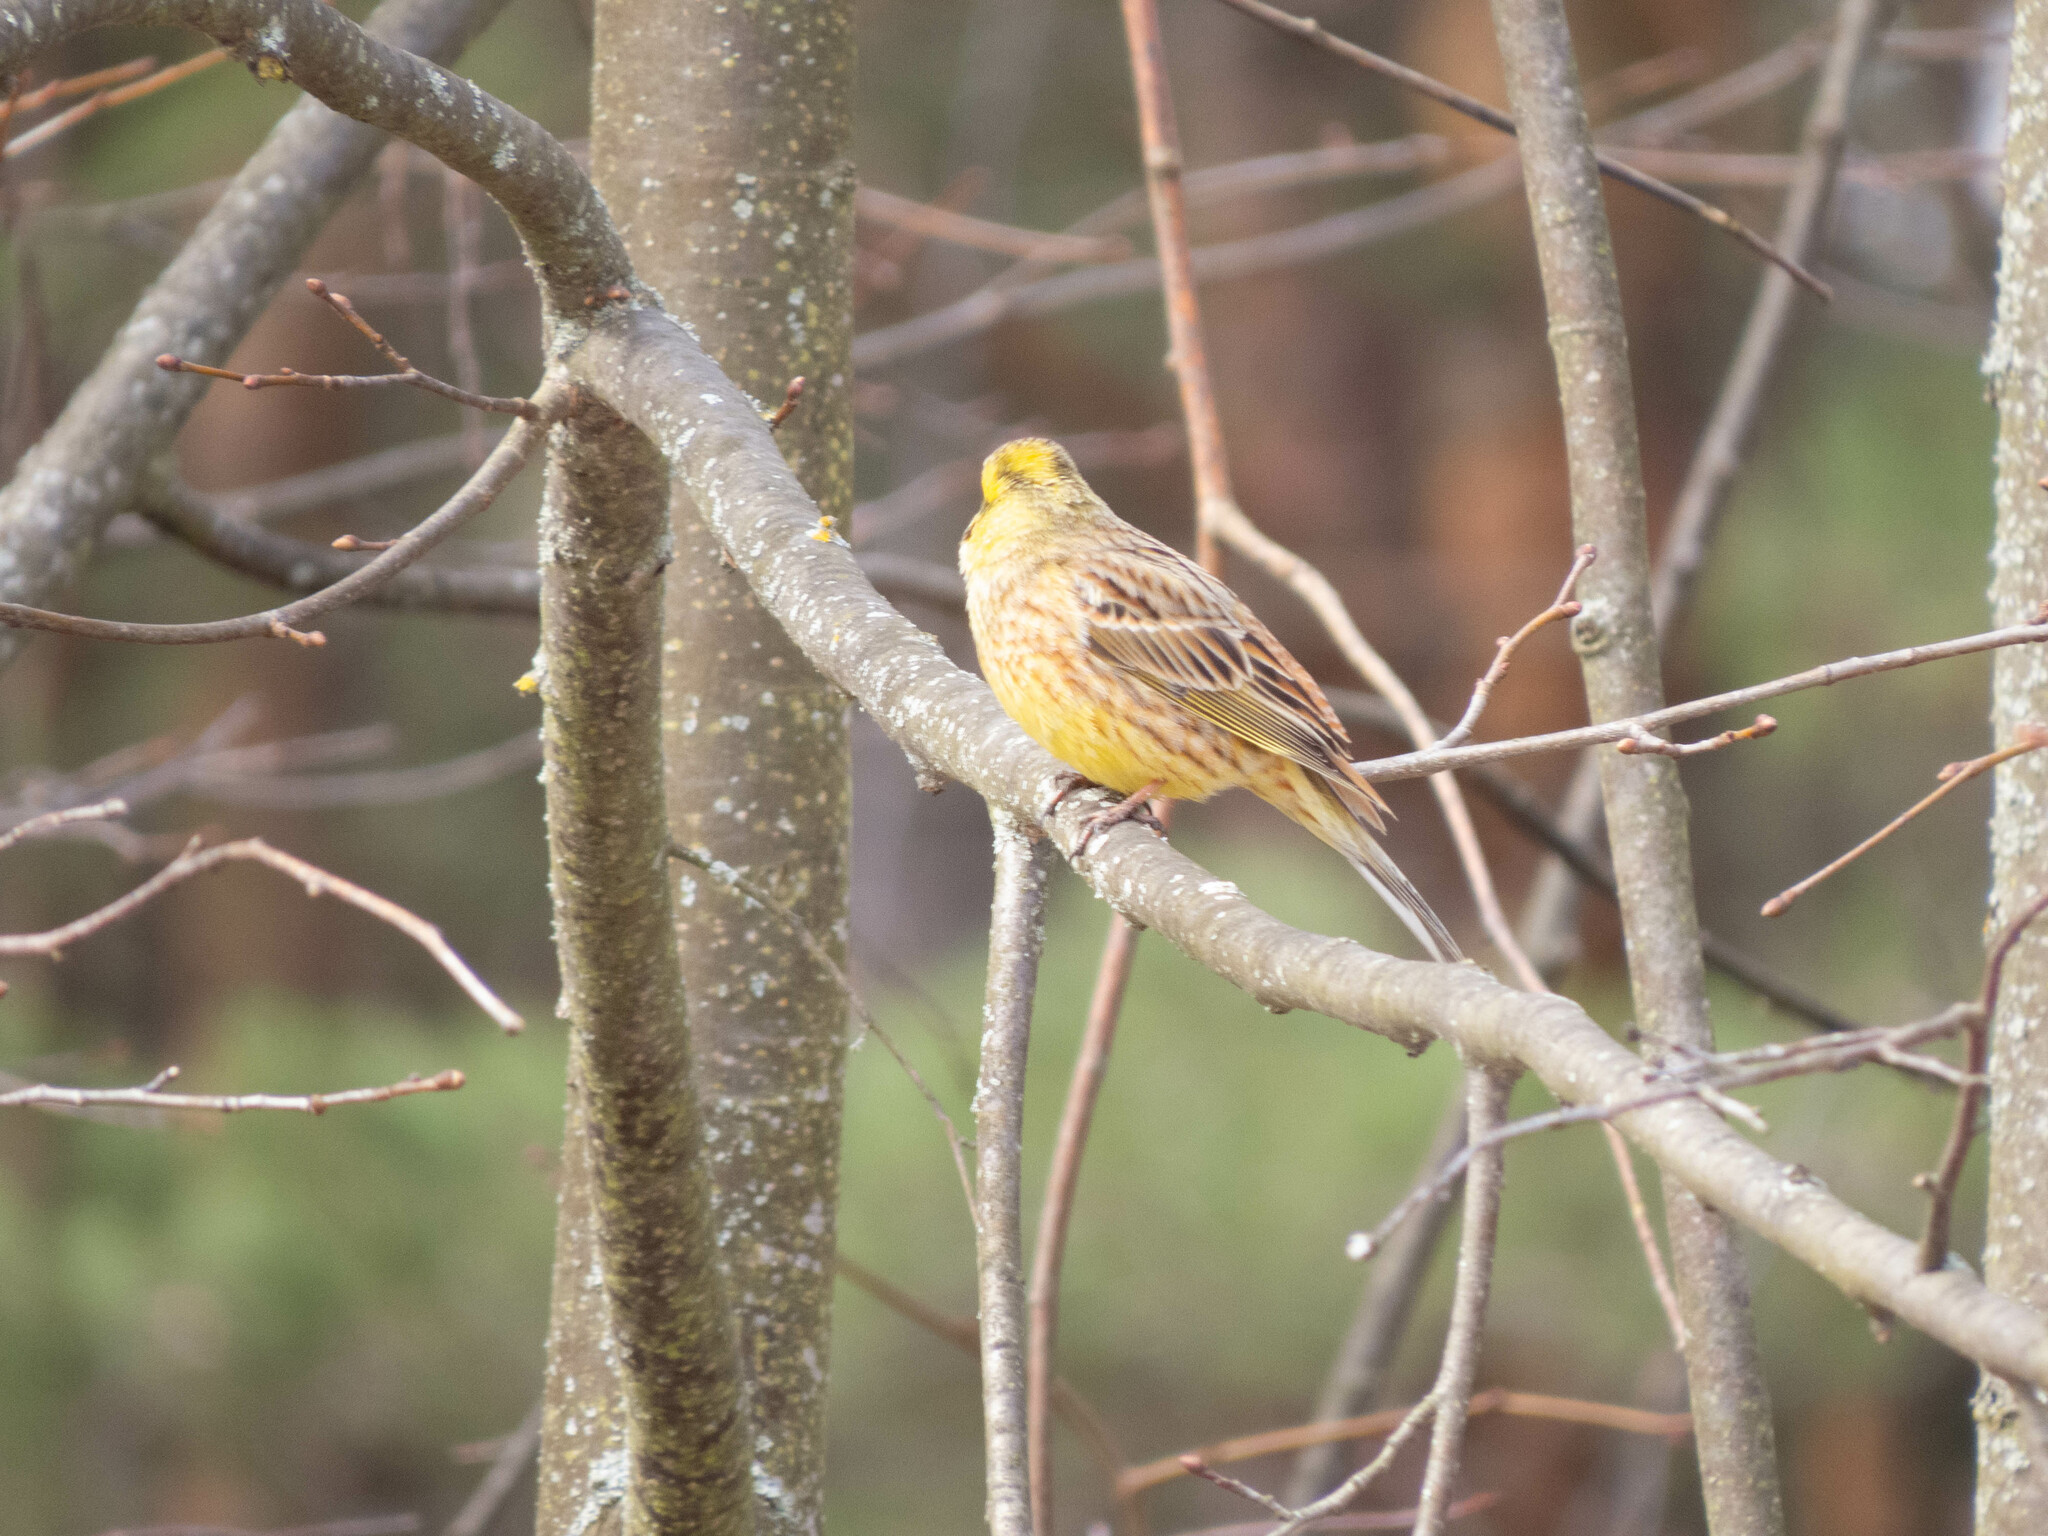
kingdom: Animalia
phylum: Chordata
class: Aves
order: Passeriformes
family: Emberizidae
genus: Emberiza
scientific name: Emberiza citrinella
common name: Yellowhammer
